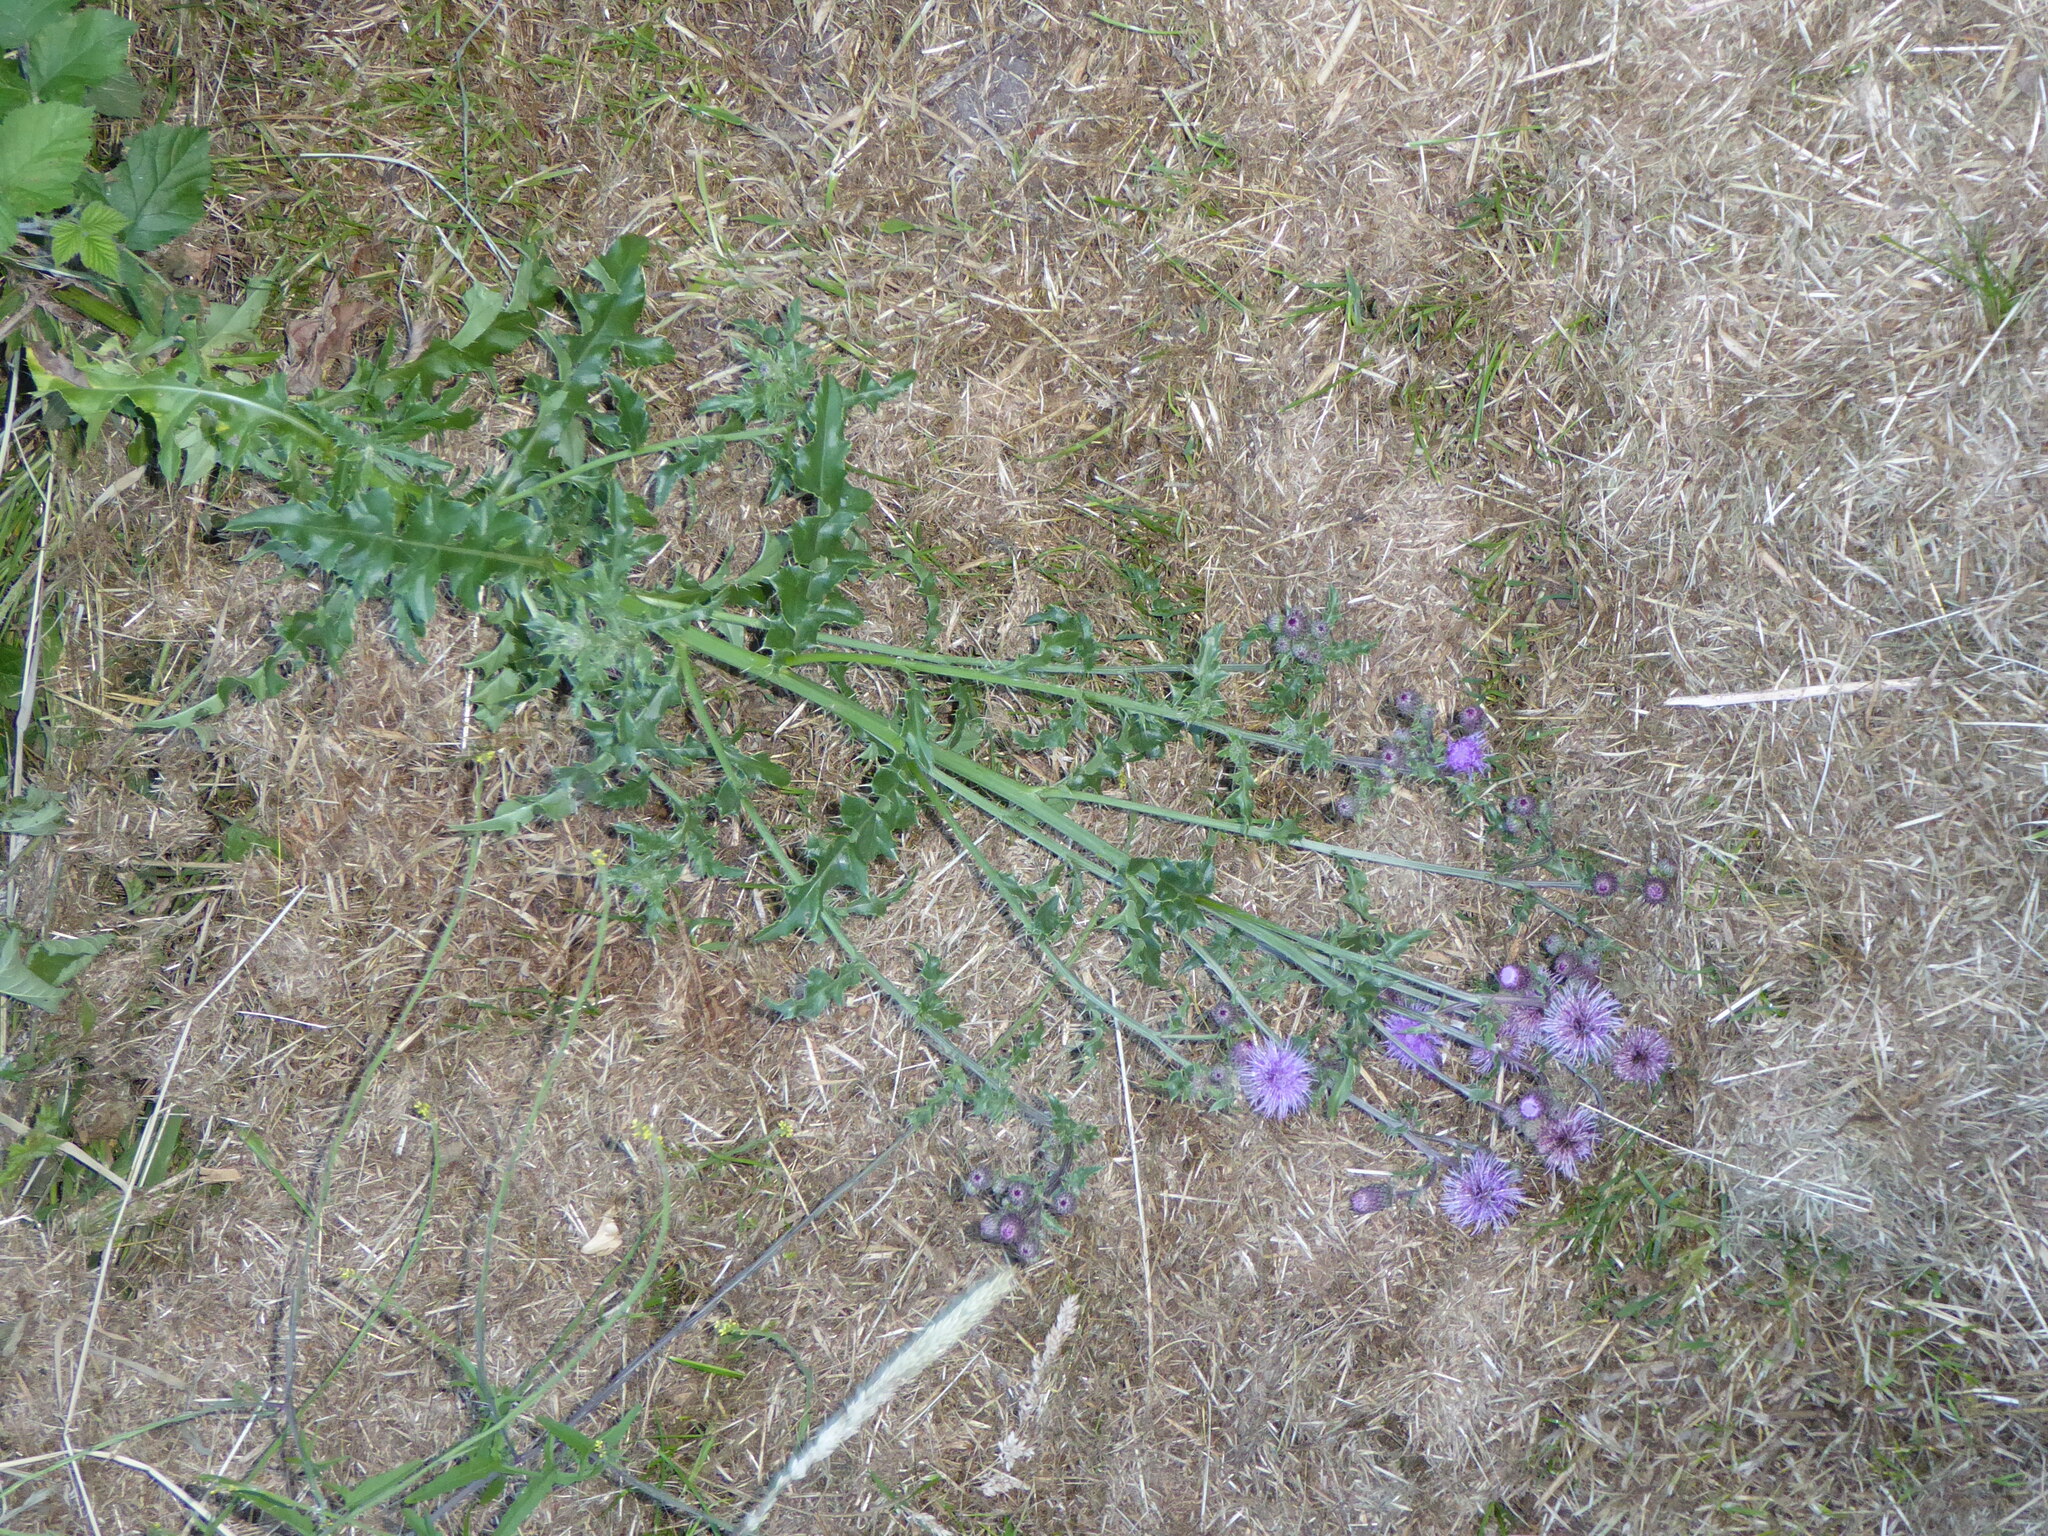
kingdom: Plantae
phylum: Tracheophyta
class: Magnoliopsida
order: Asterales
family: Asteraceae
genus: Cirsium
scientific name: Cirsium arvense
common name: Creeping thistle
